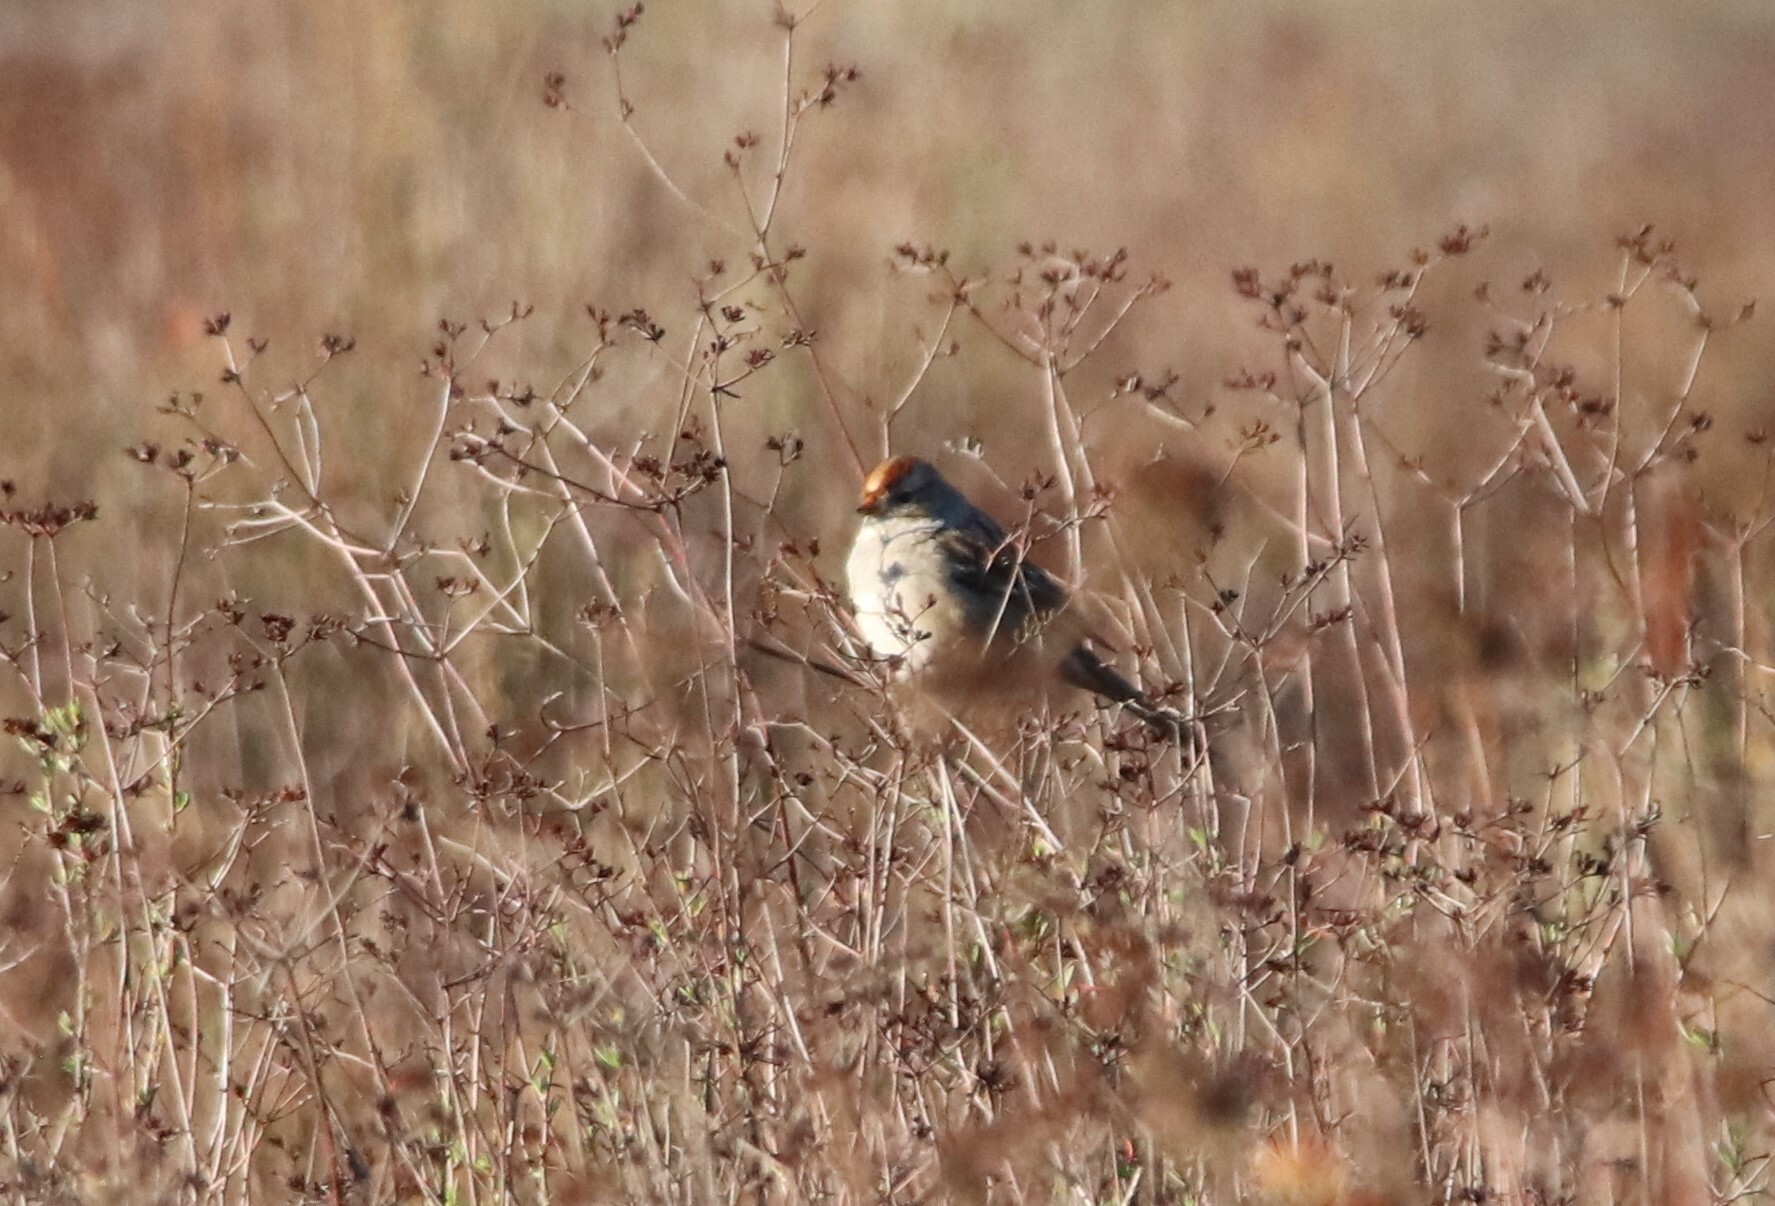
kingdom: Animalia
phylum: Chordata
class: Aves
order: Passeriformes
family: Passerellidae
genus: Zonotrichia
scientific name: Zonotrichia leucophrys
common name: White-crowned sparrow
